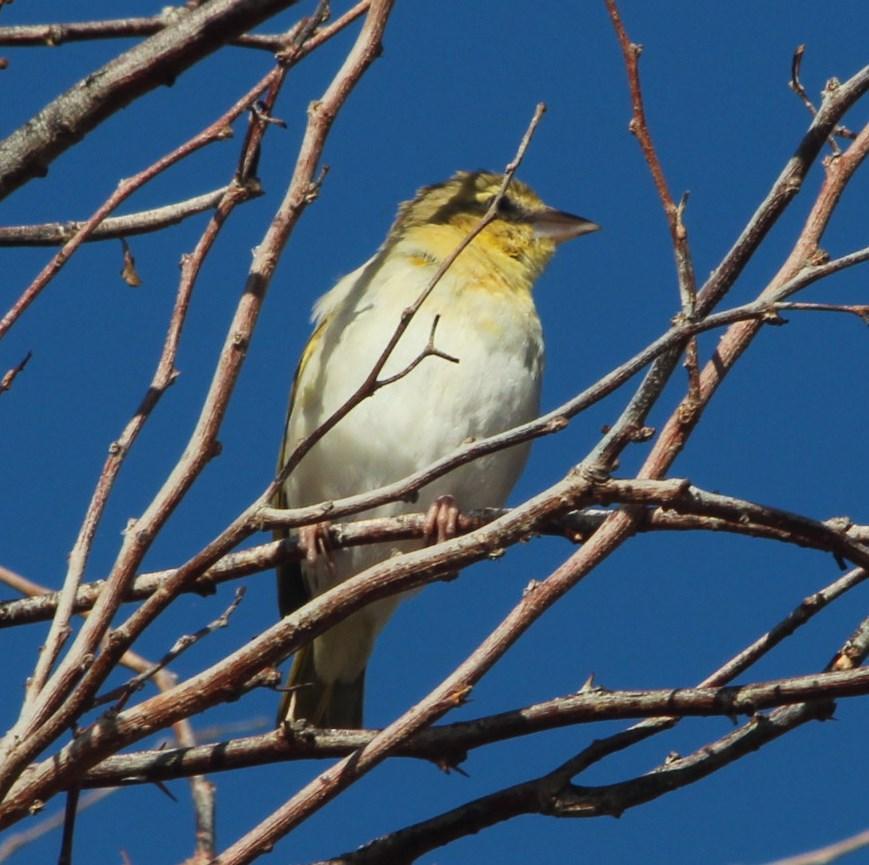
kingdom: Animalia
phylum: Chordata
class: Aves
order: Passeriformes
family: Ploceidae
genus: Ploceus
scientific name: Ploceus velatus
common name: Southern masked weaver
